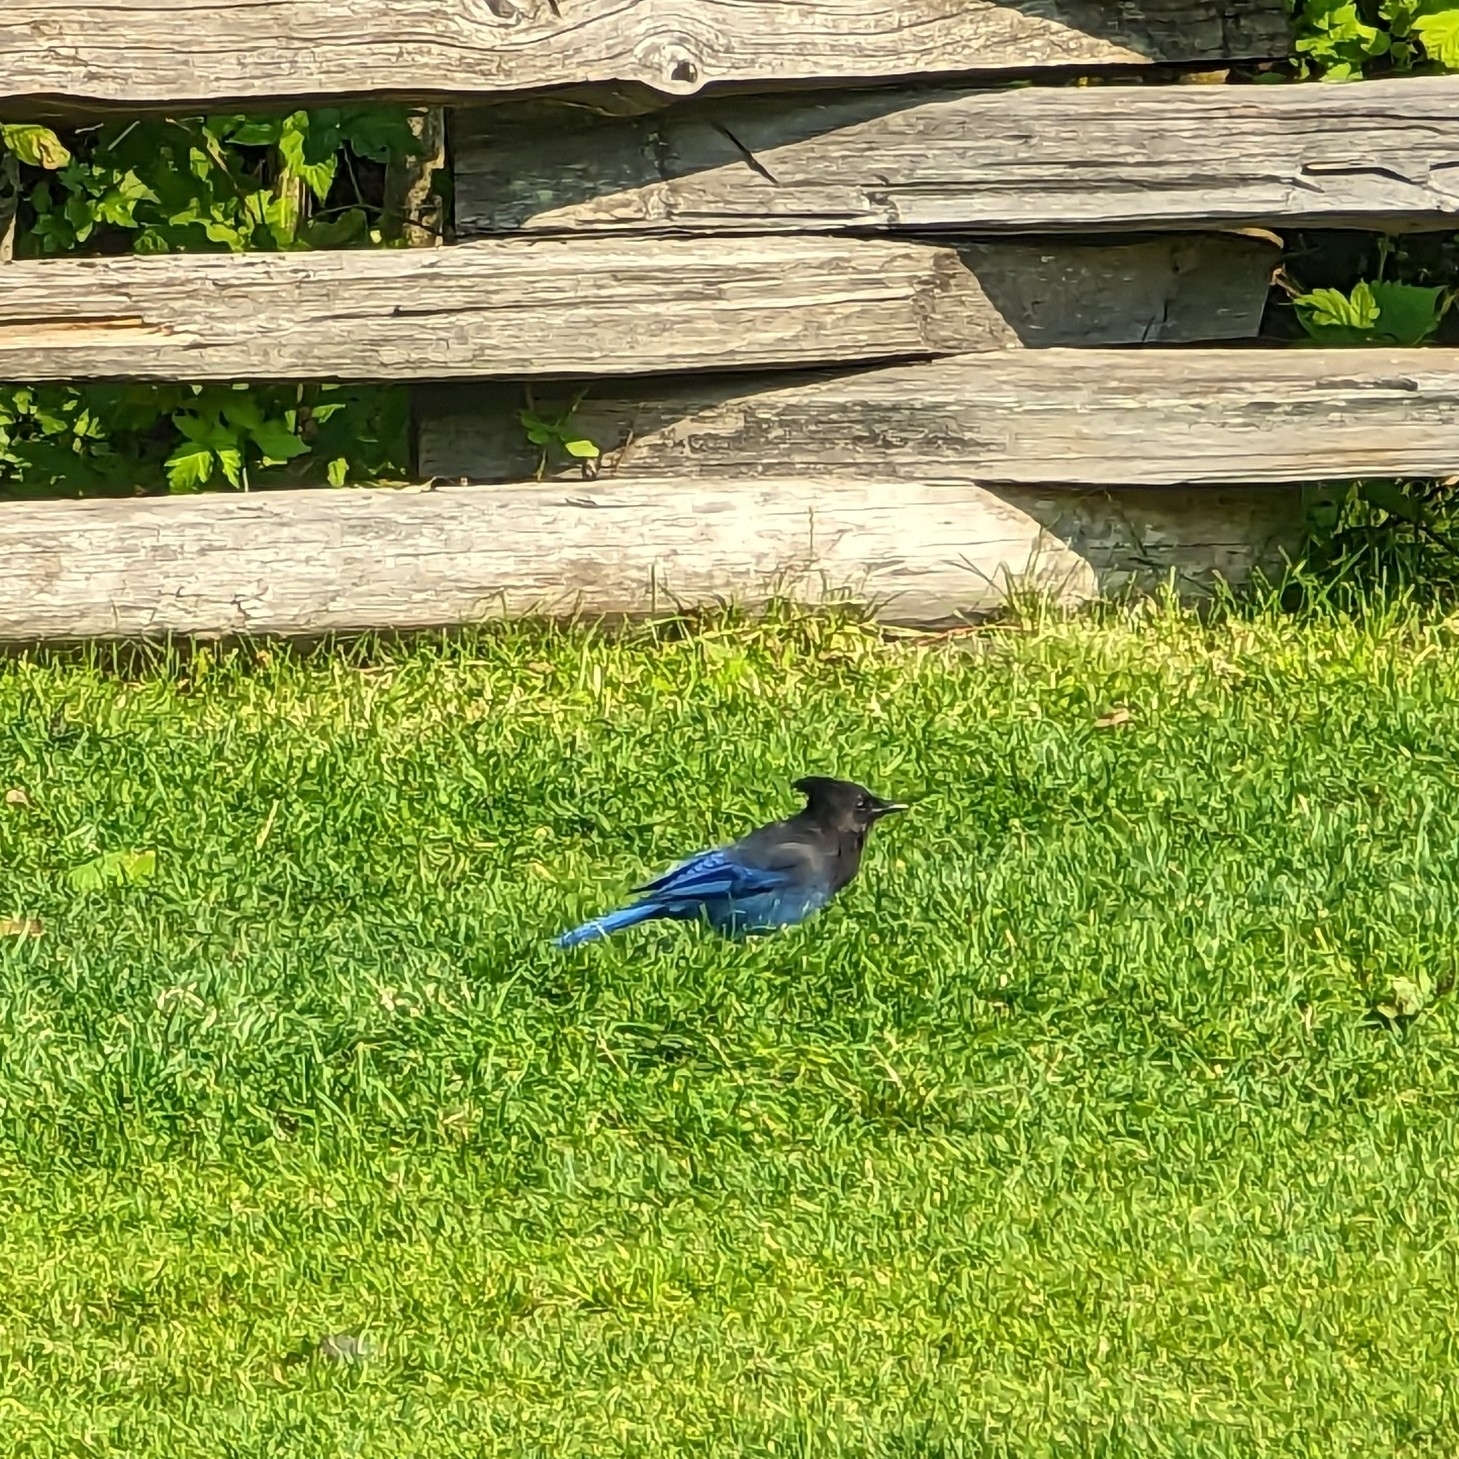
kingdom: Animalia
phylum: Chordata
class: Aves
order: Passeriformes
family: Corvidae
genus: Cyanocitta
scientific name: Cyanocitta stelleri
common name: Steller's jay
